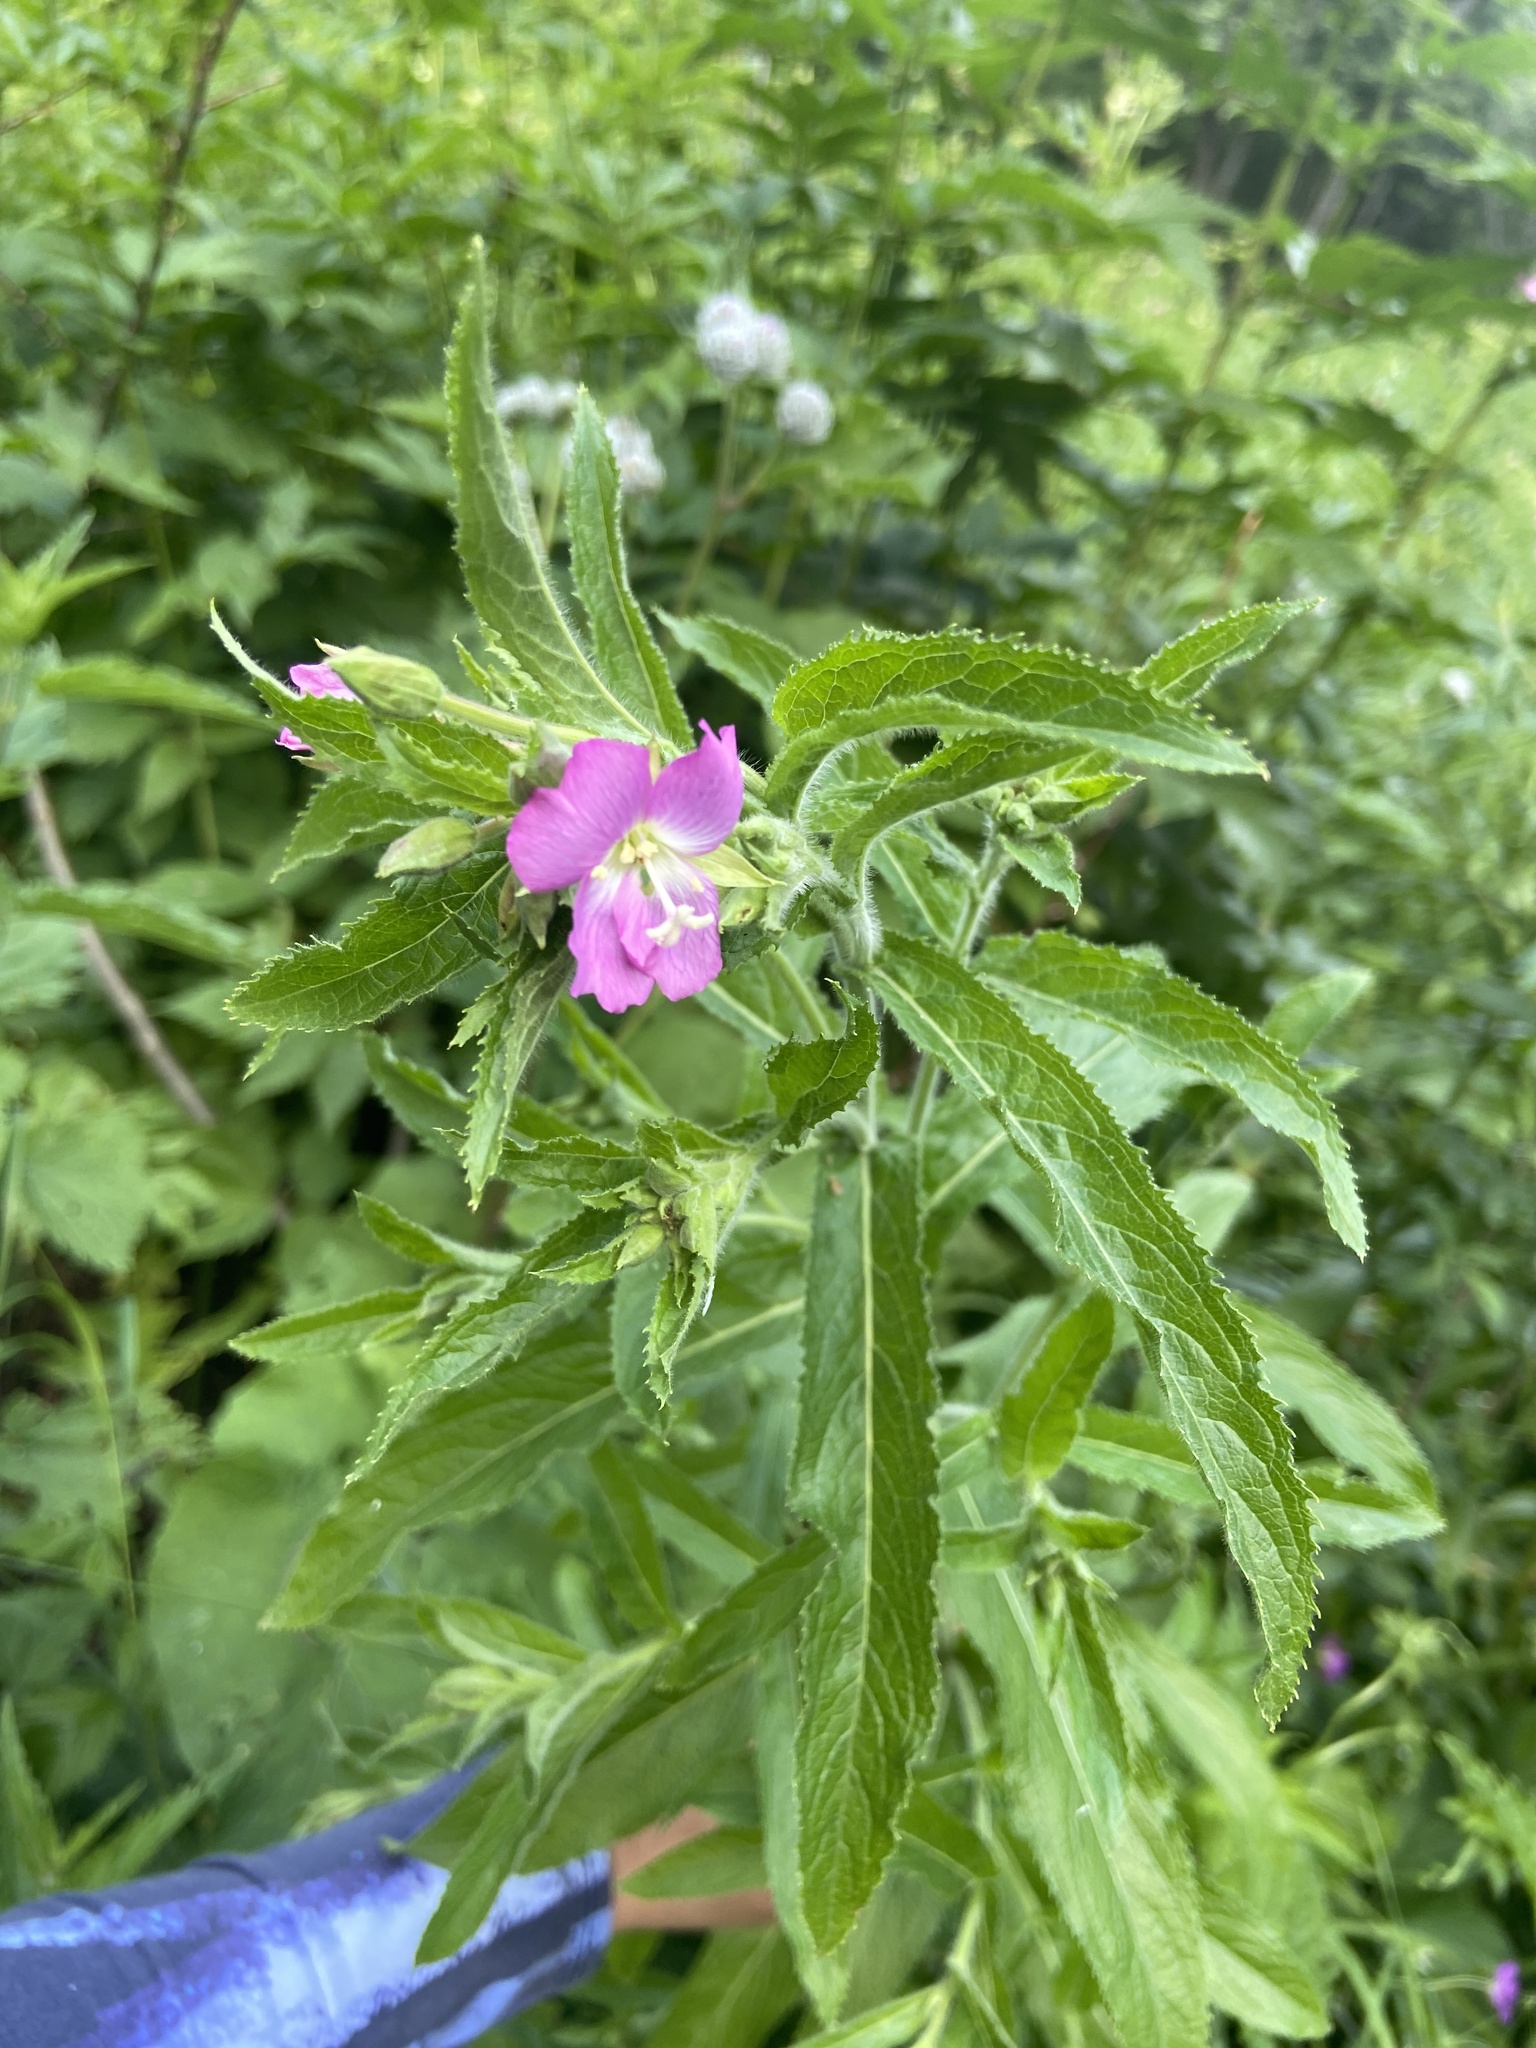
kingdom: Plantae
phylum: Tracheophyta
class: Magnoliopsida
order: Myrtales
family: Onagraceae
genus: Epilobium
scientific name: Epilobium hirsutum
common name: Great willowherb
